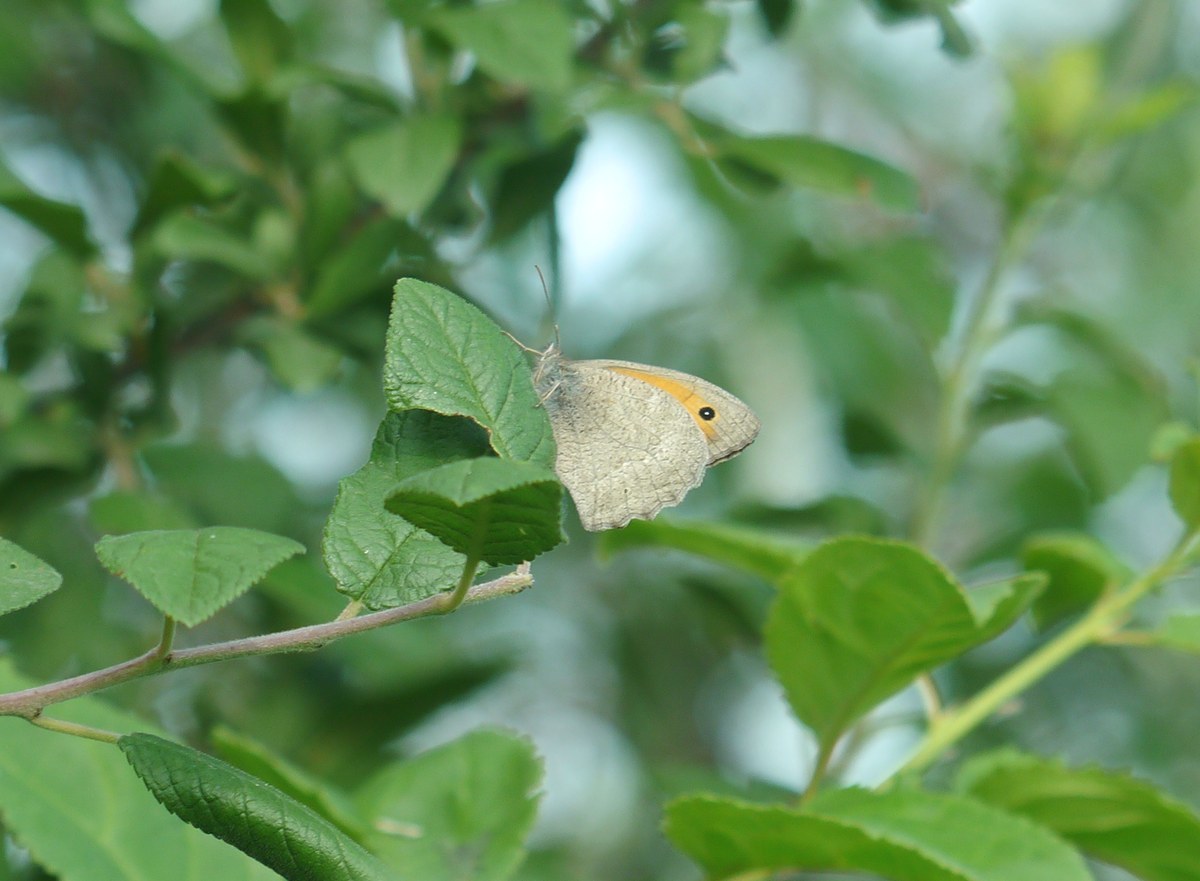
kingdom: Animalia
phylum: Arthropoda
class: Insecta
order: Lepidoptera
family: Nymphalidae
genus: Hyponephele
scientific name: Hyponephele lupinus
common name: Oriental meadow brown
